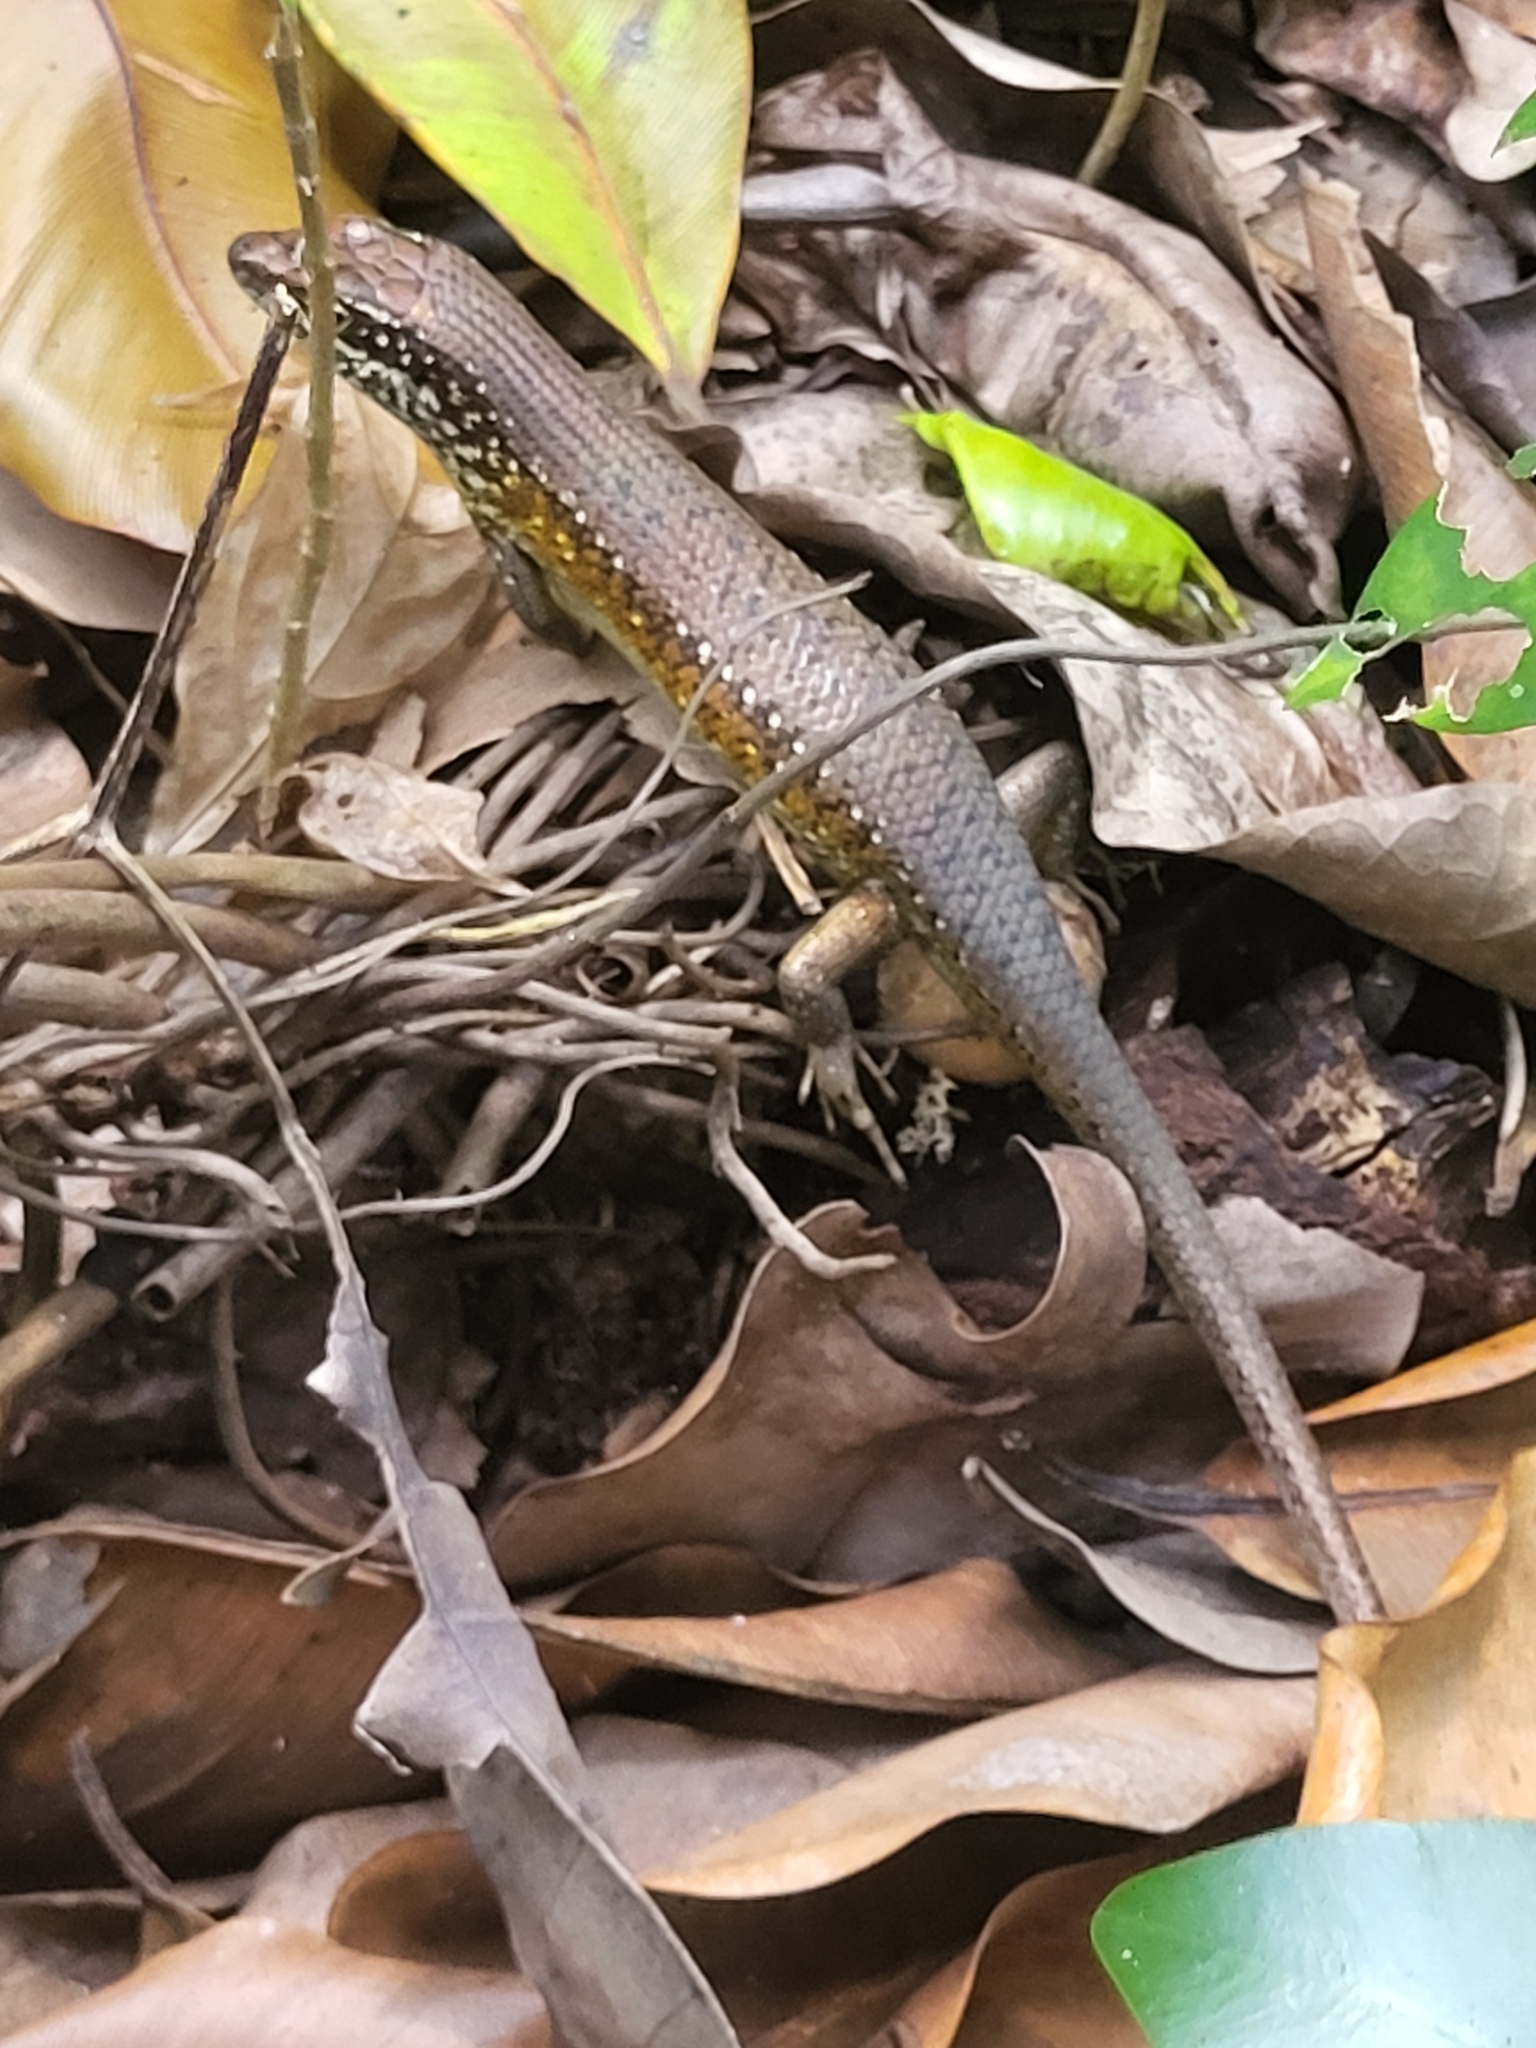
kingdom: Animalia
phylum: Chordata
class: Squamata
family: Scincidae
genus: Trachylepis
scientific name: Trachylepis maculilabris
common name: Speckle-lipped mabuya
